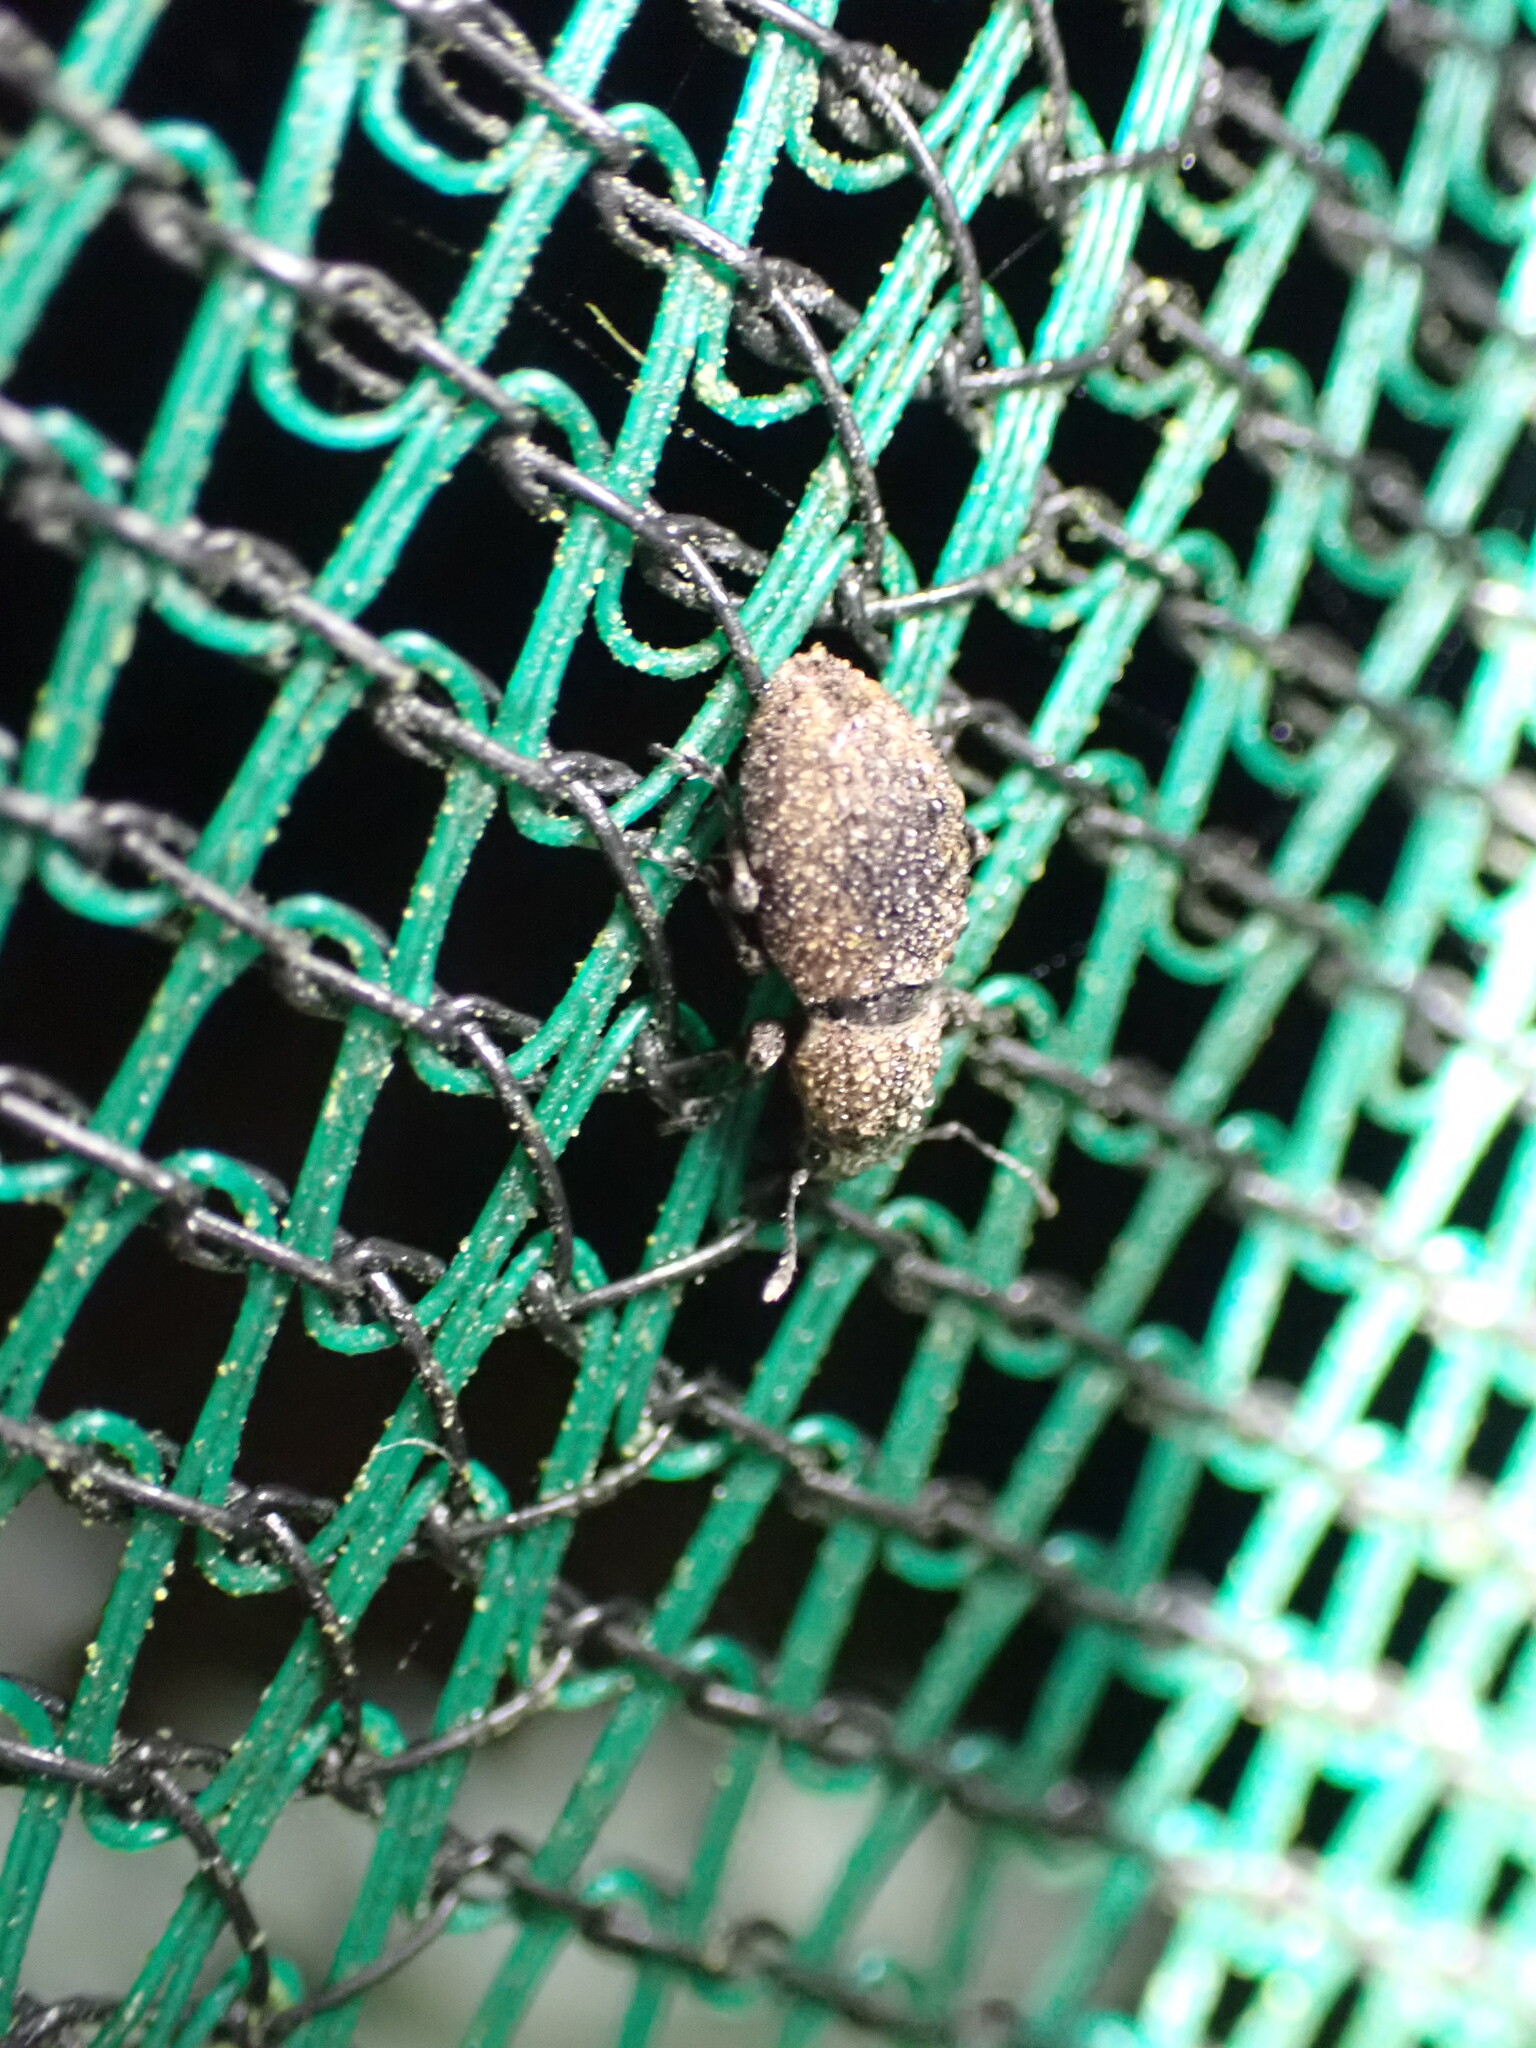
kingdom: Animalia
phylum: Arthropoda
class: Insecta
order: Coleoptera
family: Curculionidae
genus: Naupactus
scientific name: Naupactus cervinus
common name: Fuller rose beetle
